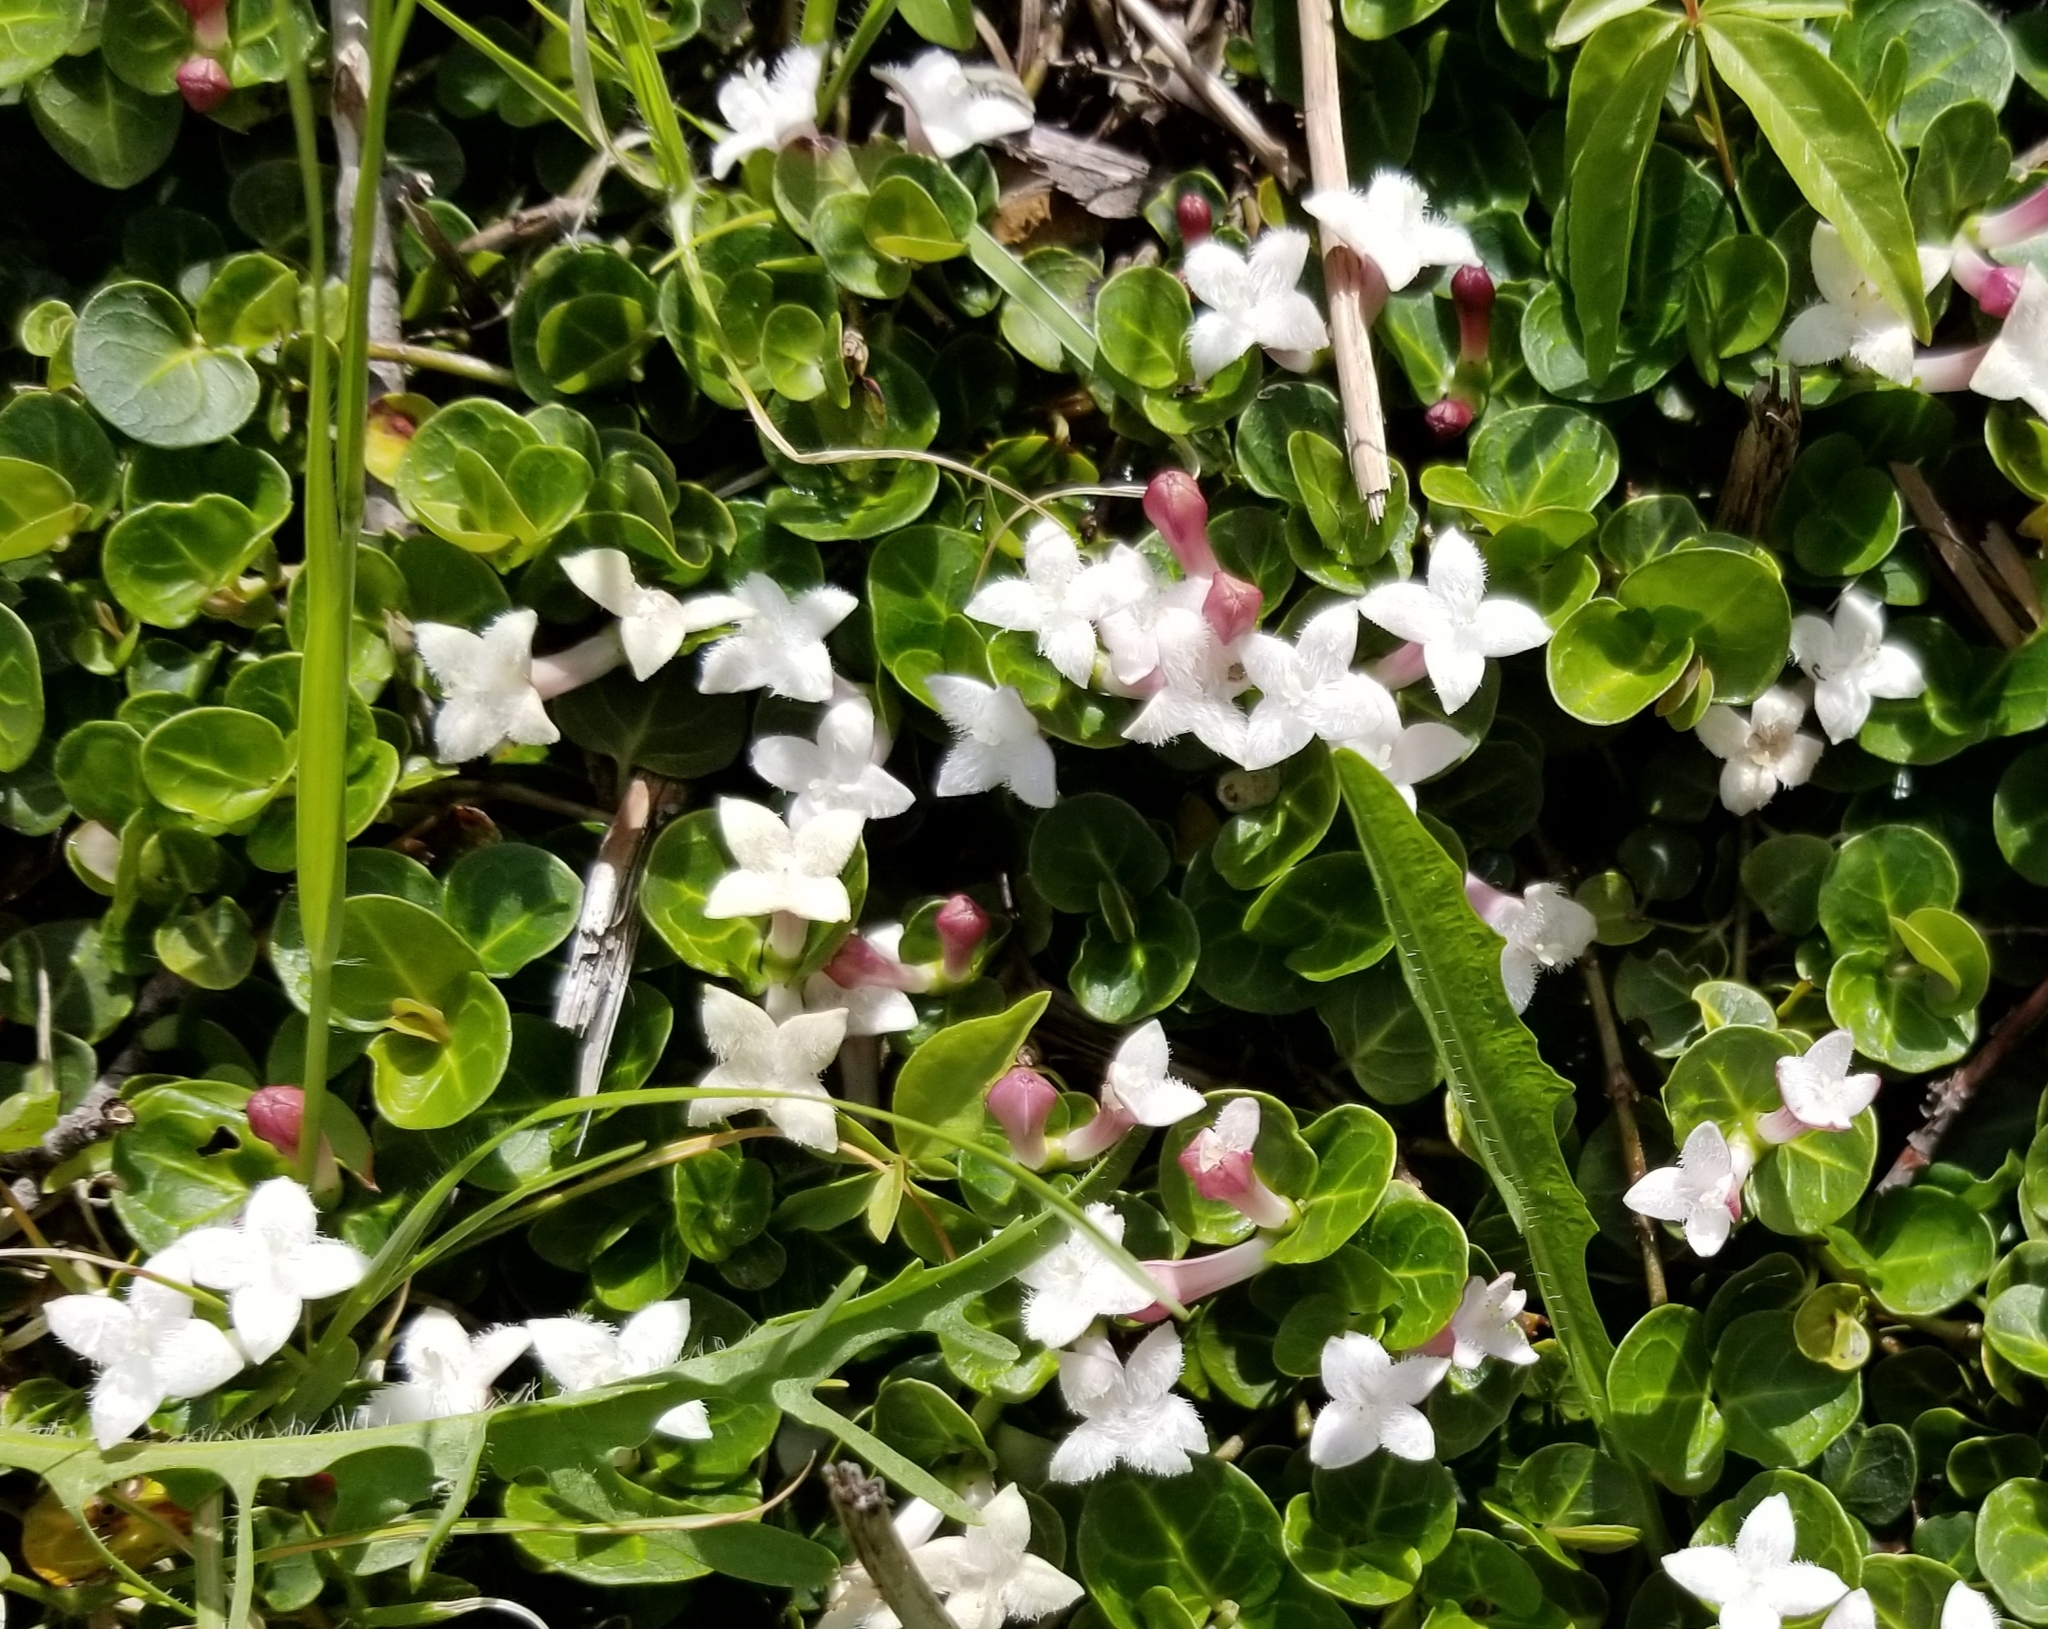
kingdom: Plantae
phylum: Tracheophyta
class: Magnoliopsida
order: Gentianales
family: Rubiaceae
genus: Mitchella
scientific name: Mitchella repens
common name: Partridge-berry
